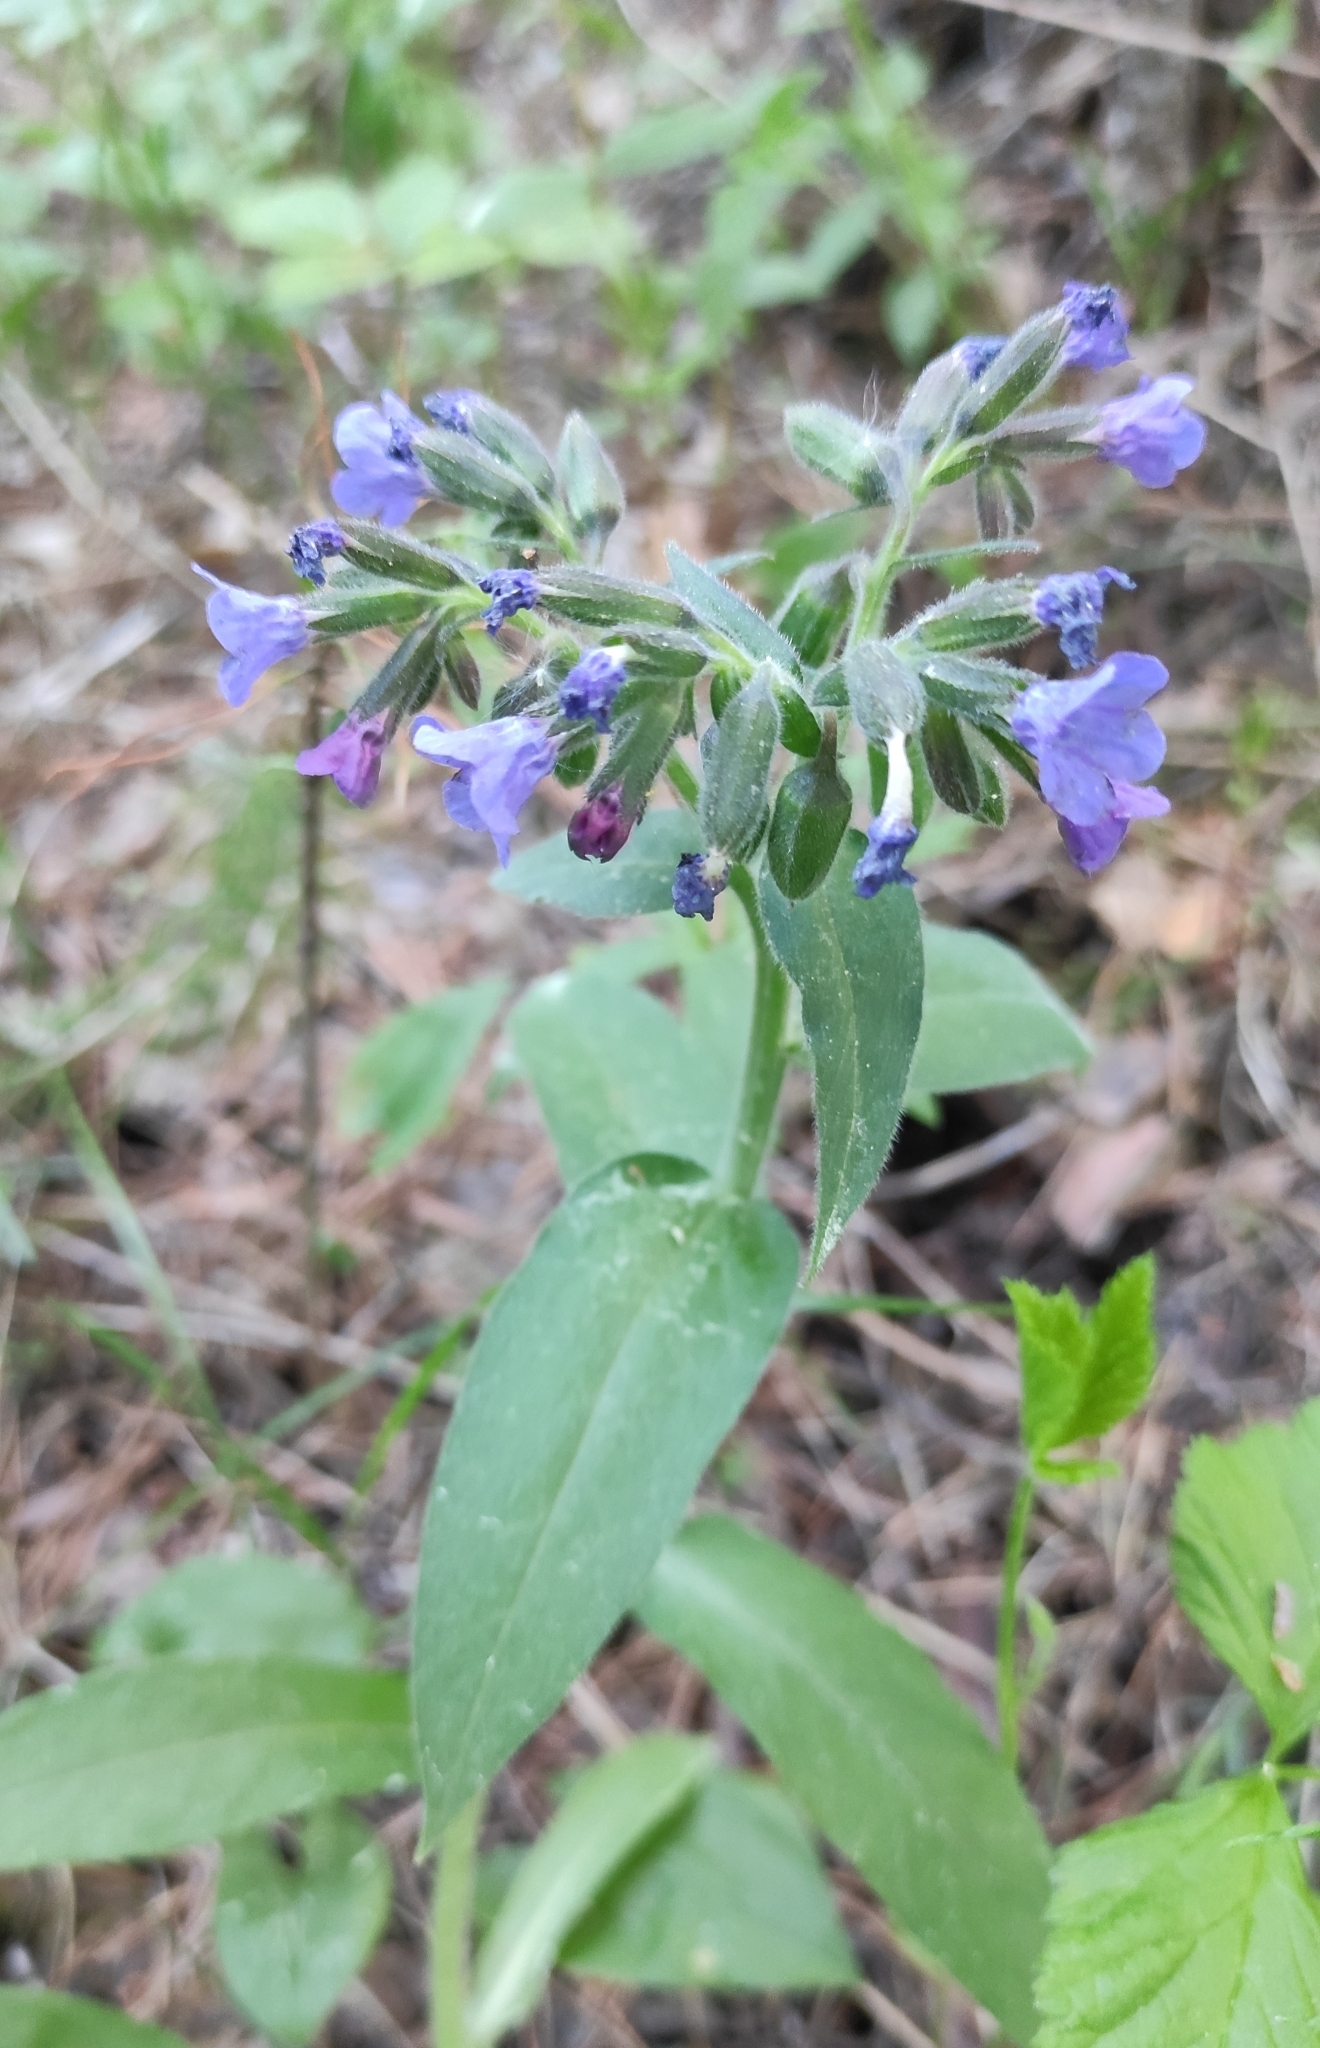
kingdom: Plantae
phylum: Tracheophyta
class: Magnoliopsida
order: Boraginales
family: Boraginaceae
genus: Pulmonaria
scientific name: Pulmonaria mollis
